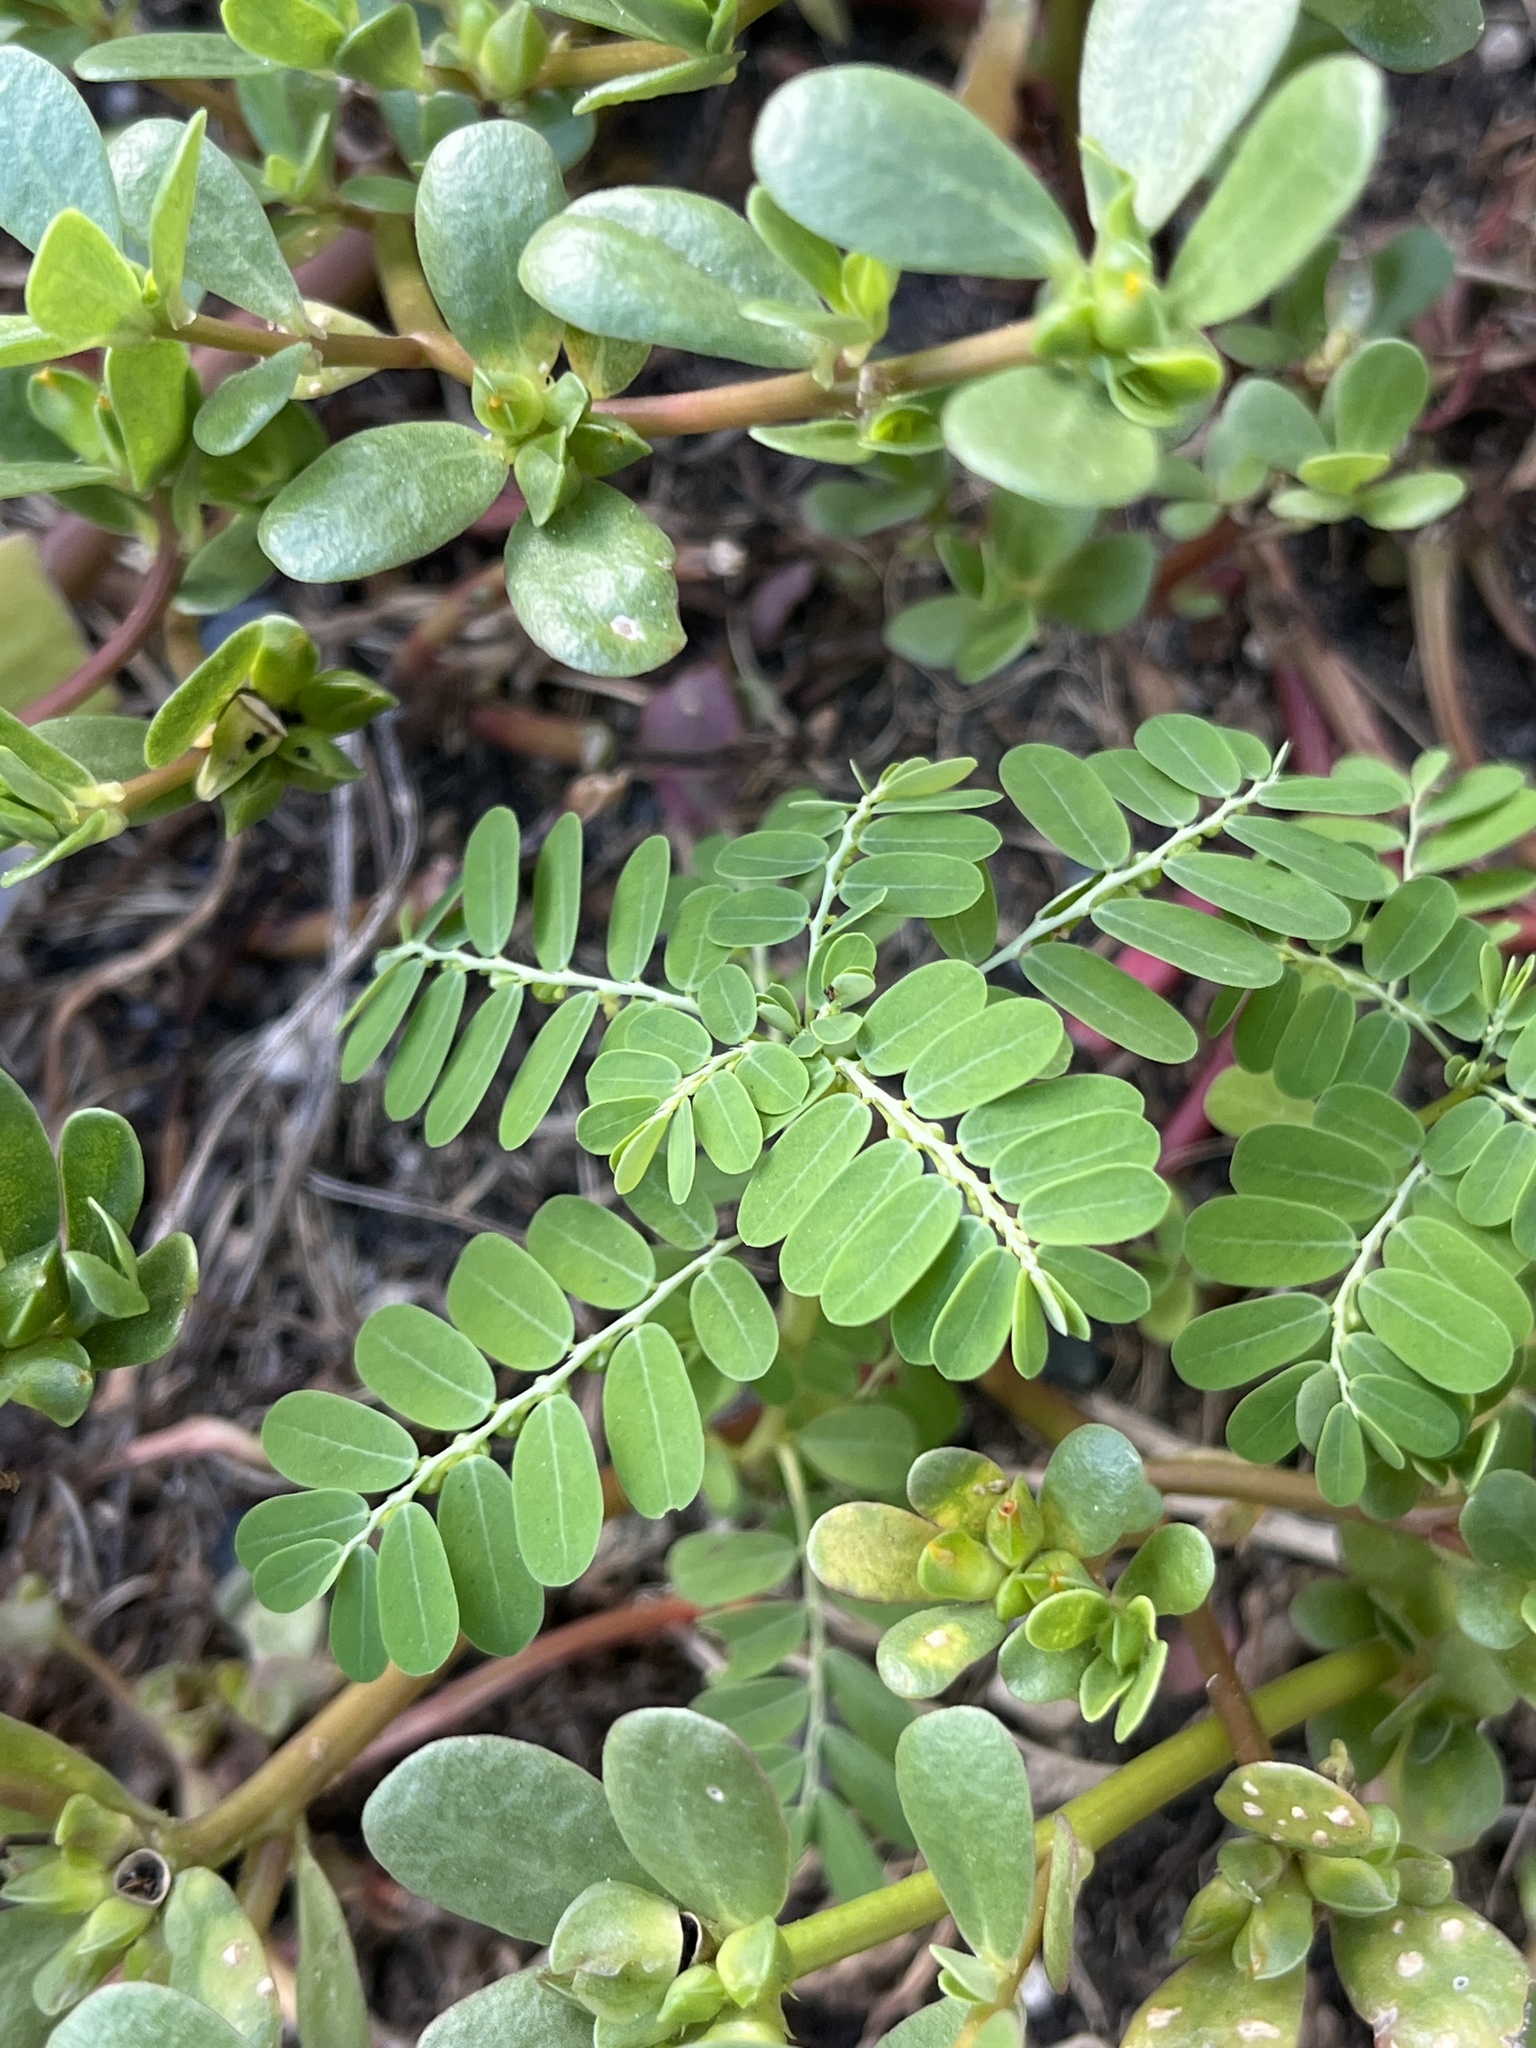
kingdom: Plantae
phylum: Tracheophyta
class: Magnoliopsida
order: Malpighiales
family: Phyllanthaceae
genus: Phyllanthus
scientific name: Phyllanthus amarus
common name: Carry me seed
